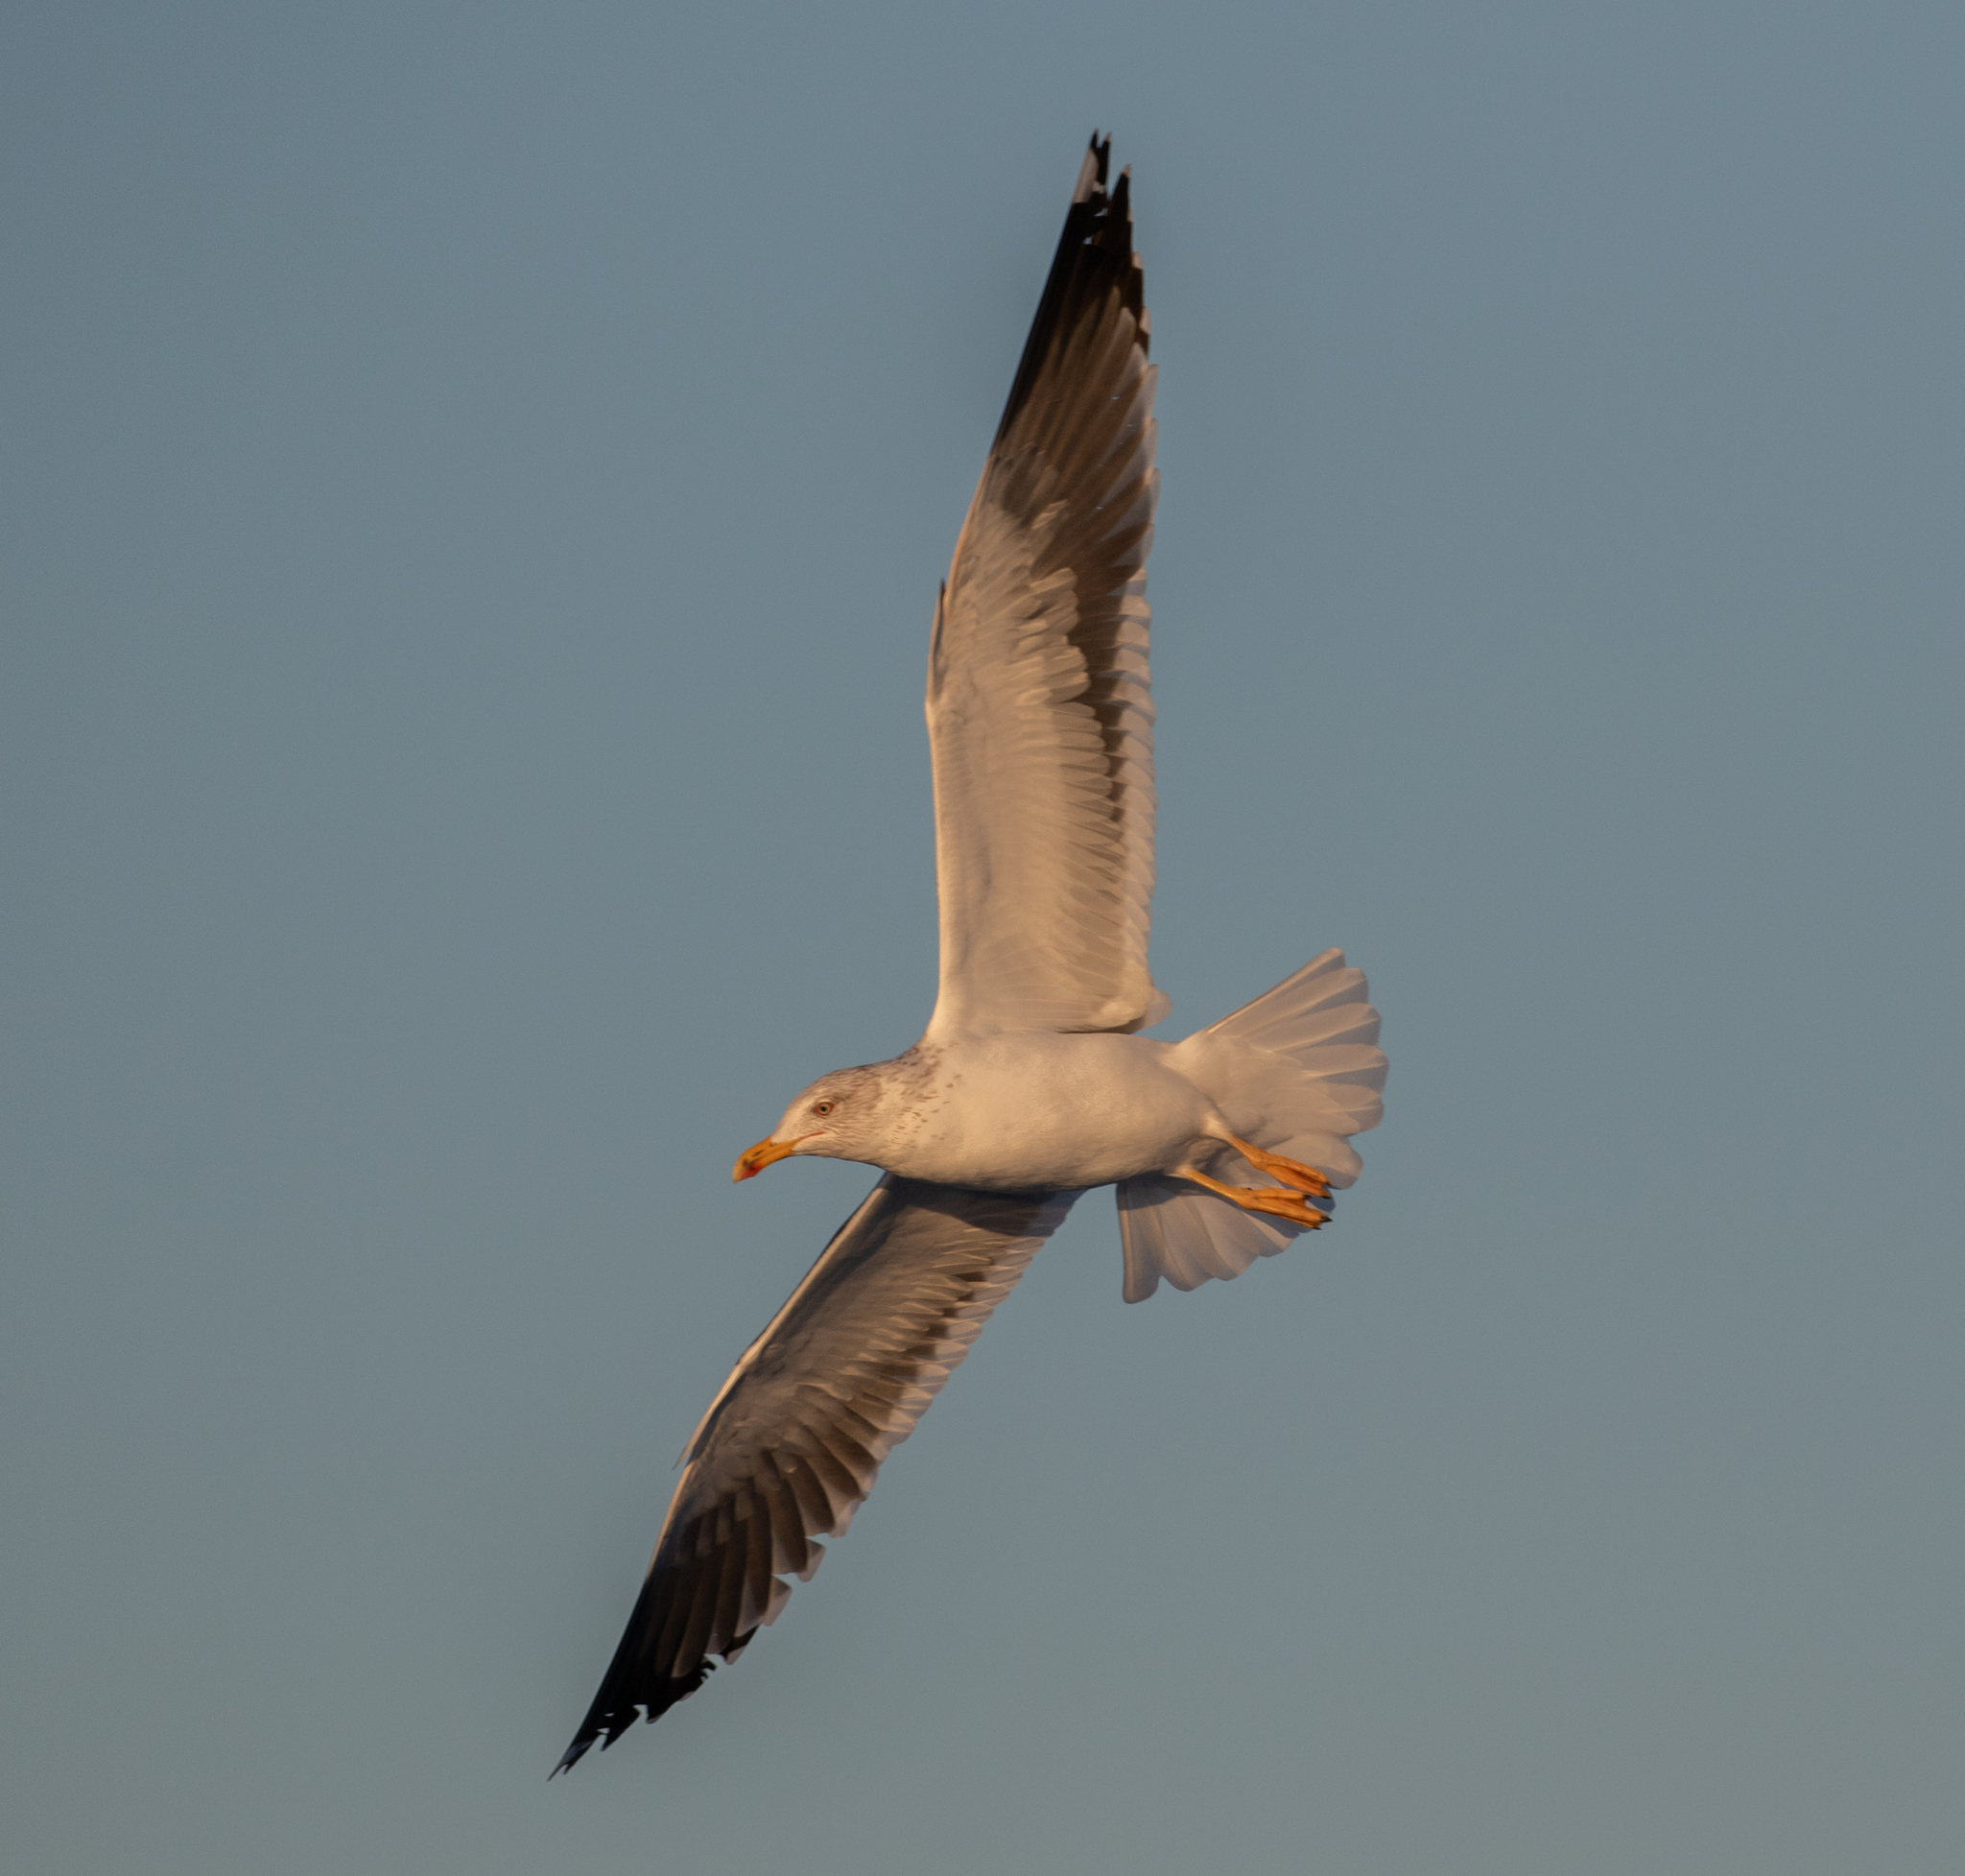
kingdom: Animalia
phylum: Chordata
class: Aves
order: Charadriiformes
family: Laridae
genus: Larus
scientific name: Larus fuscus
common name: Lesser black-backed gull
